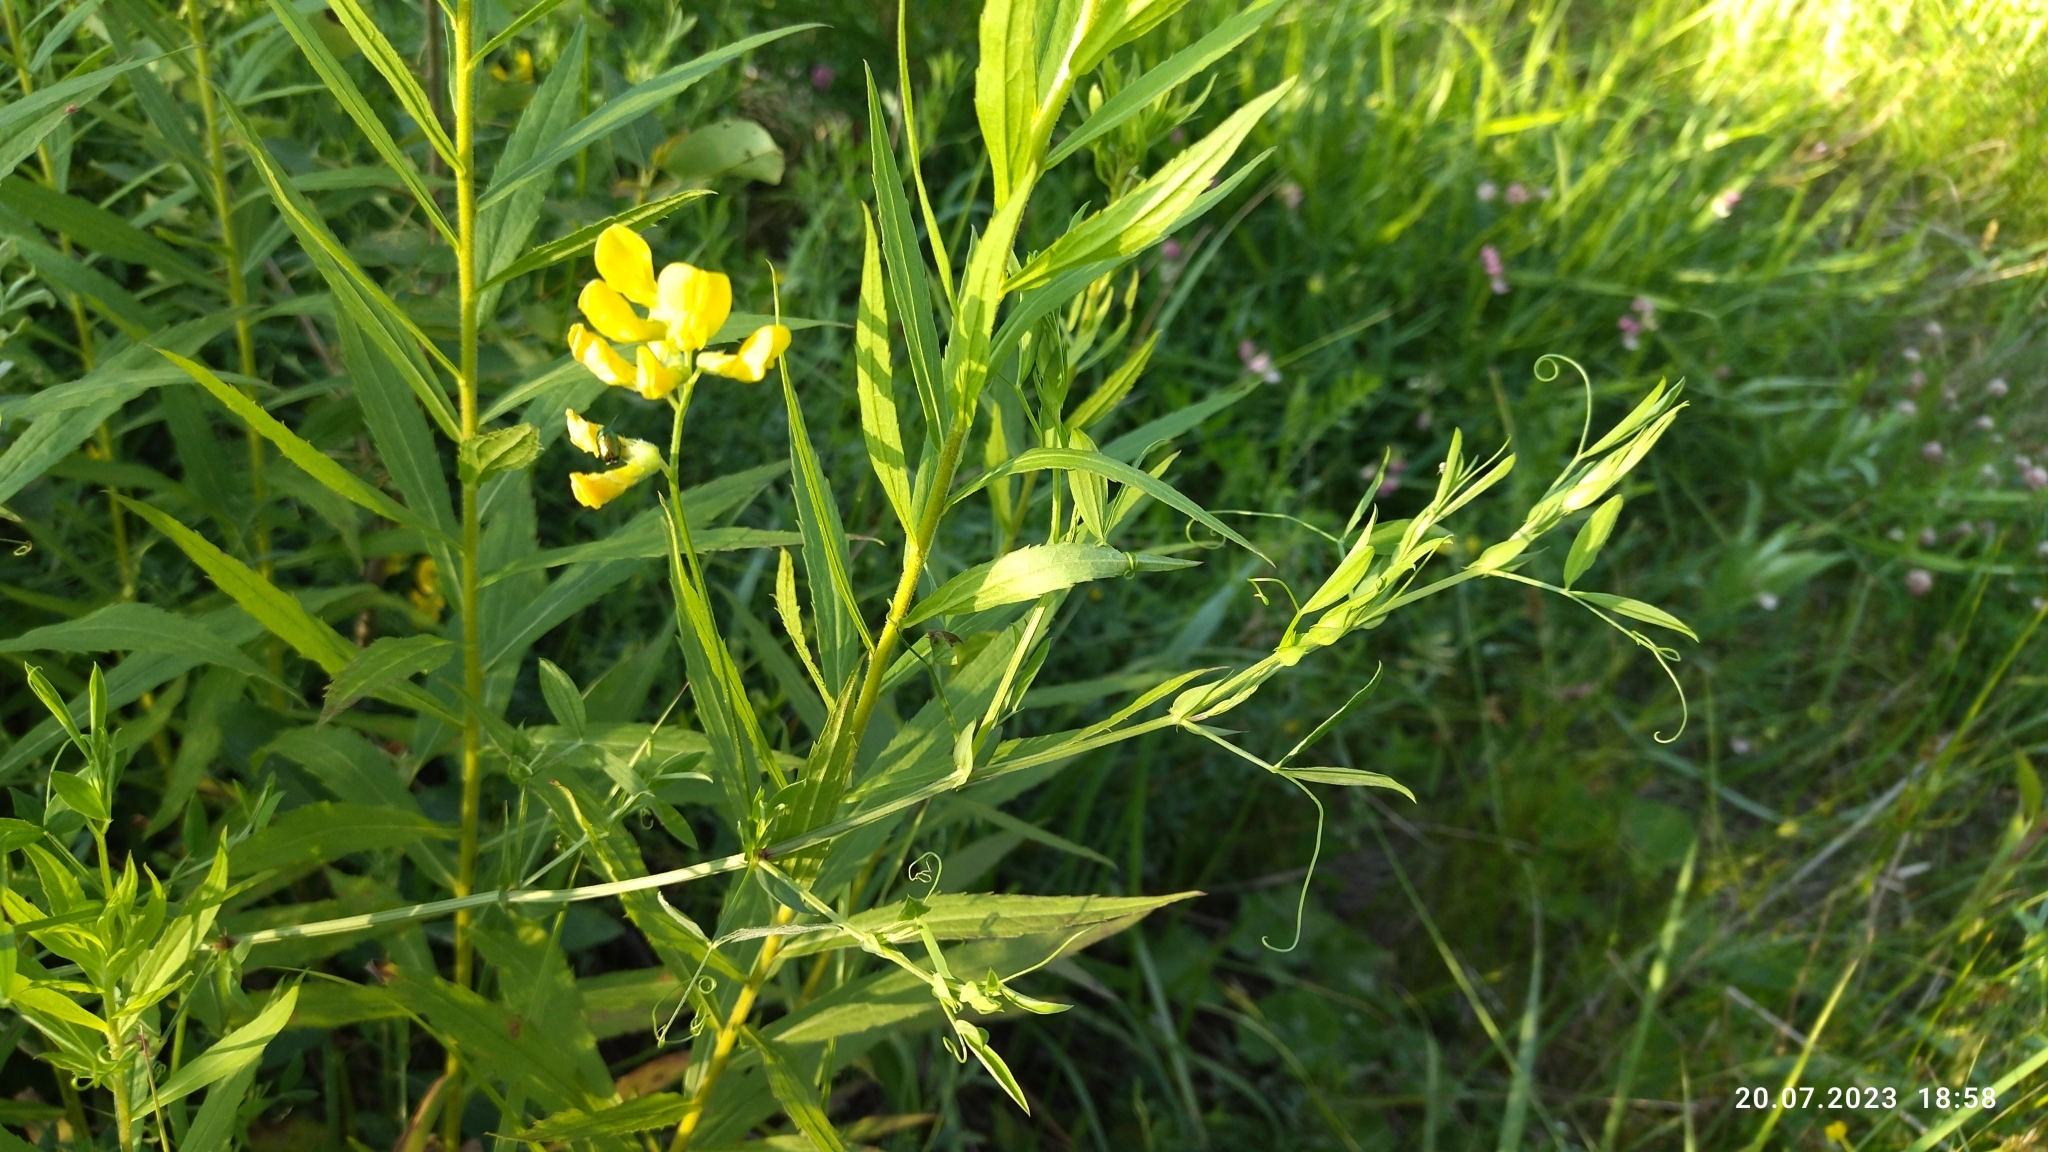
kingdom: Plantae
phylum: Tracheophyta
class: Magnoliopsida
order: Fabales
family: Fabaceae
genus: Lathyrus
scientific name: Lathyrus pratensis
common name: Meadow vetchling
